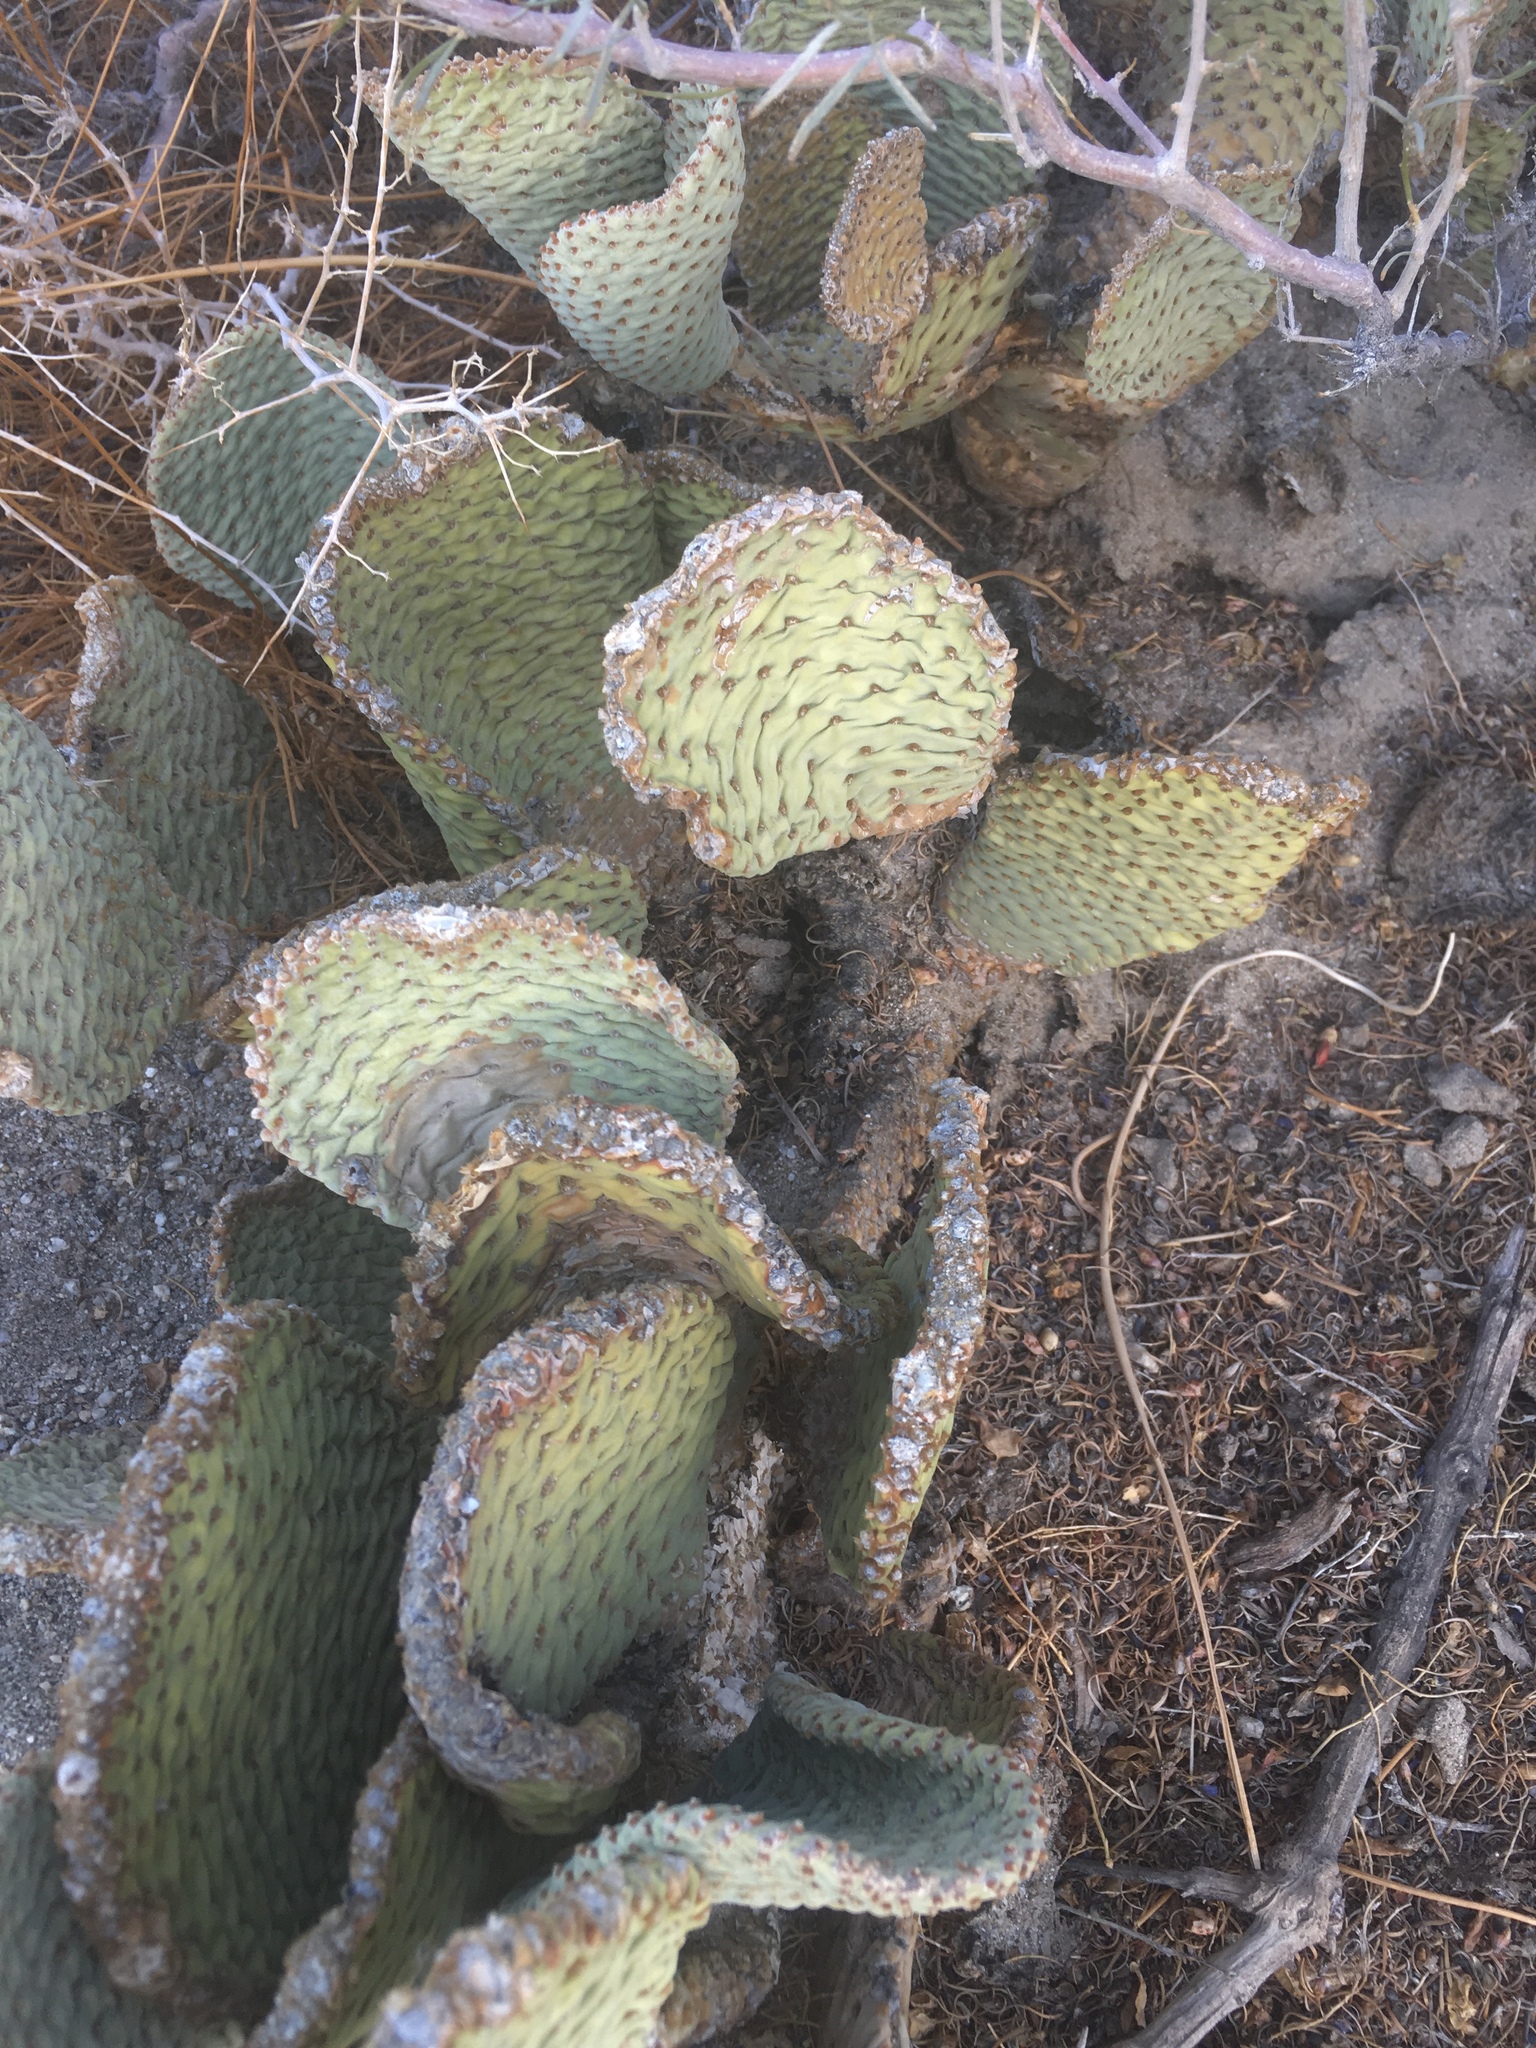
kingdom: Plantae
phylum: Tracheophyta
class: Magnoliopsida
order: Caryophyllales
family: Cactaceae
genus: Opuntia
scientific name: Opuntia basilaris
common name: Beavertail prickly-pear
